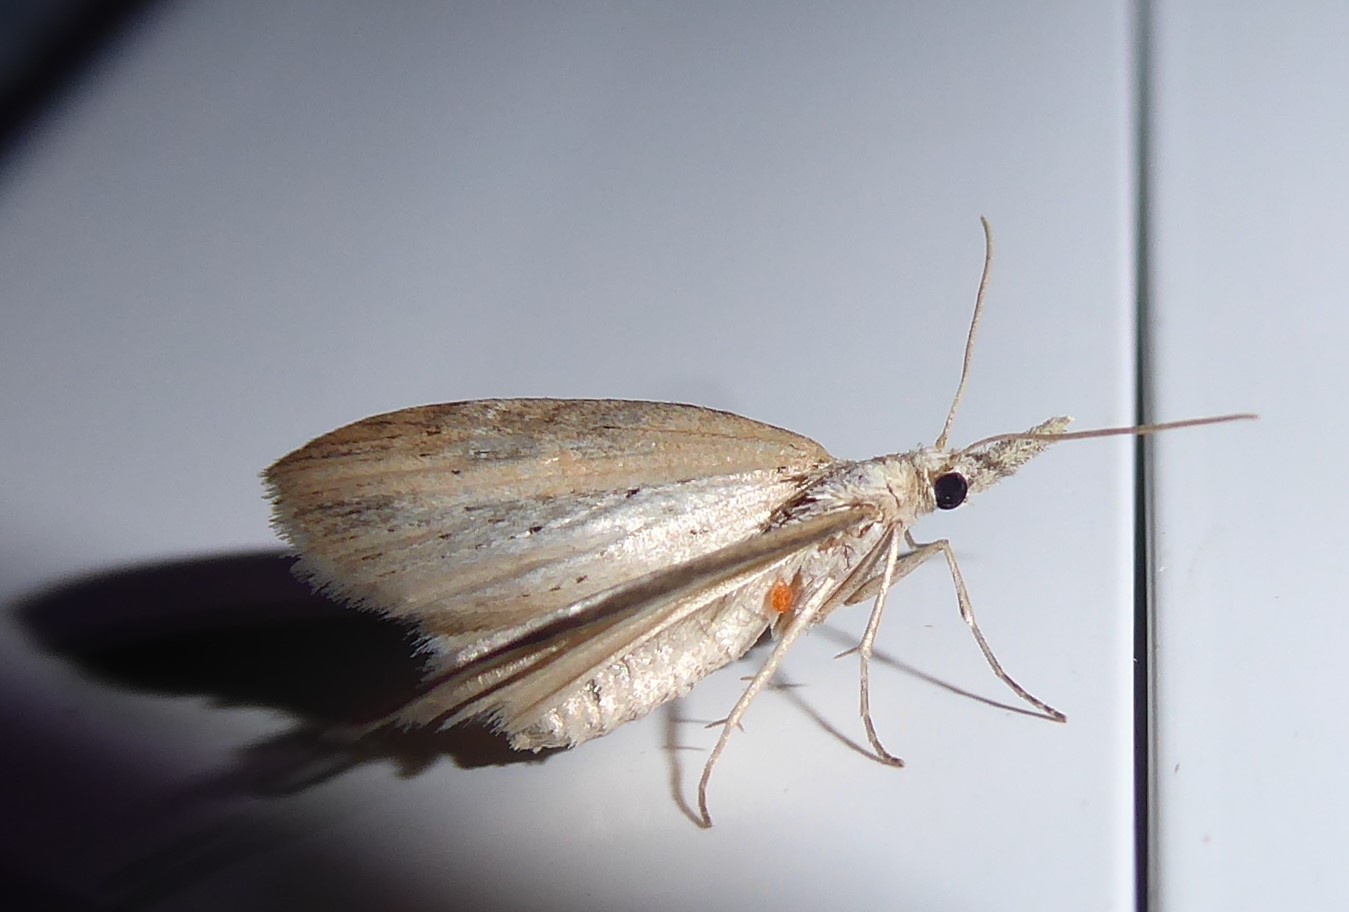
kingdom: Animalia
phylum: Arthropoda
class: Insecta
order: Lepidoptera
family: Geometridae
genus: Microdes
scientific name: Microdes epicryptis
